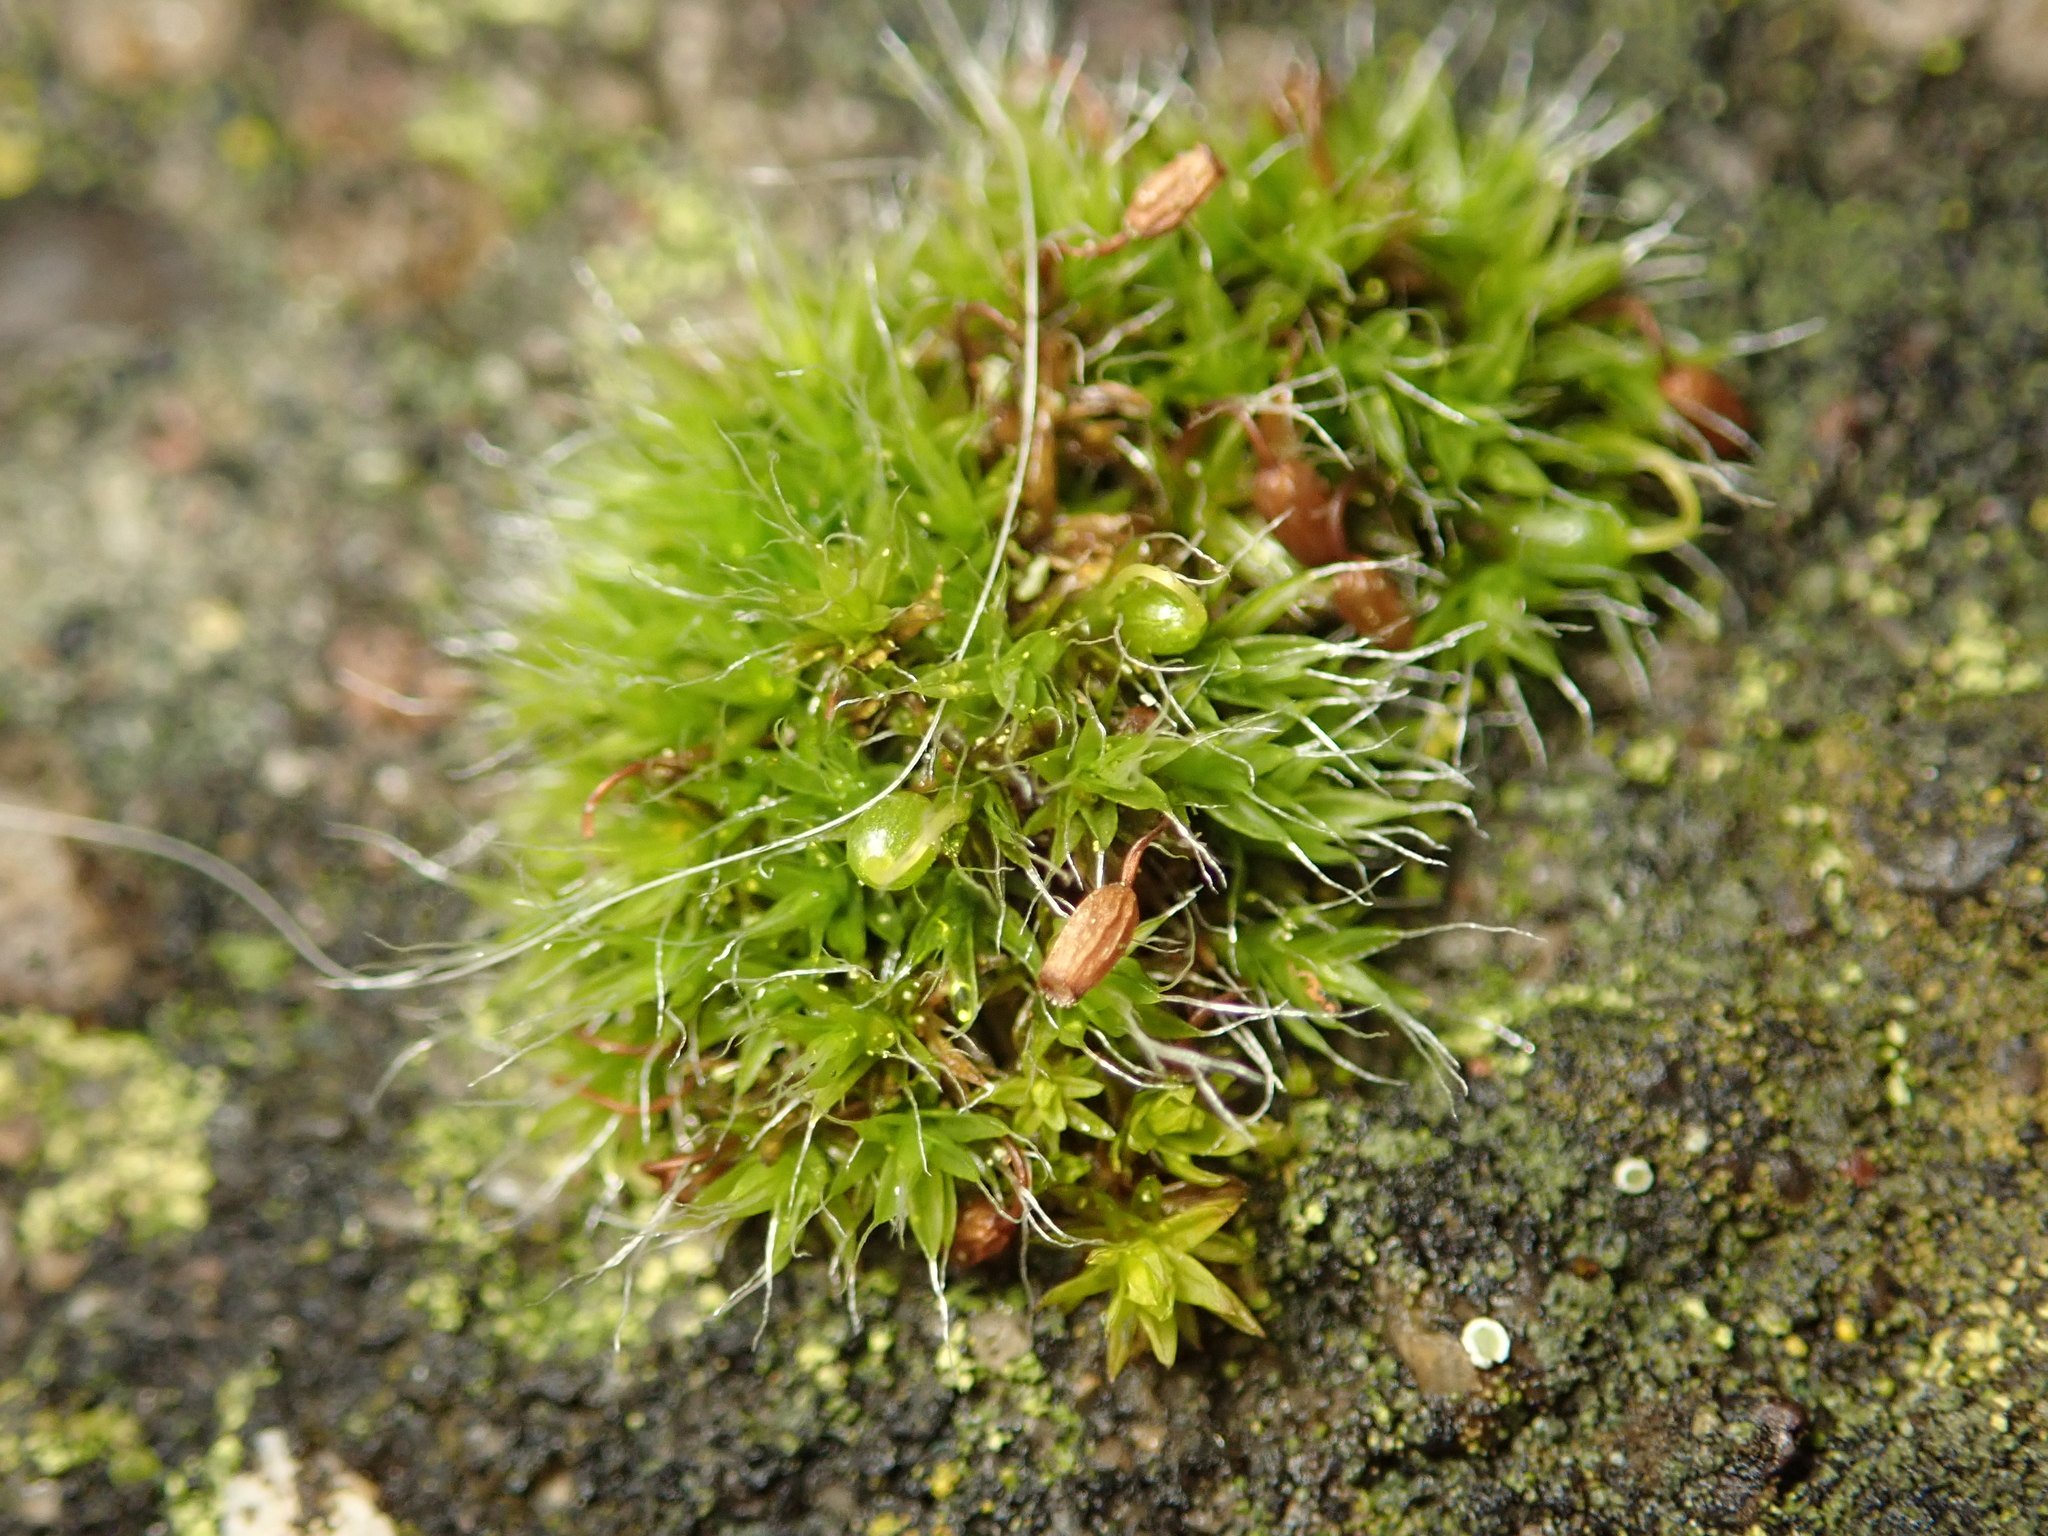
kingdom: Plantae
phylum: Bryophyta
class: Bryopsida
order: Grimmiales
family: Grimmiaceae
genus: Grimmia
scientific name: Grimmia pulvinata
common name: Grey-cushioned grimmia
